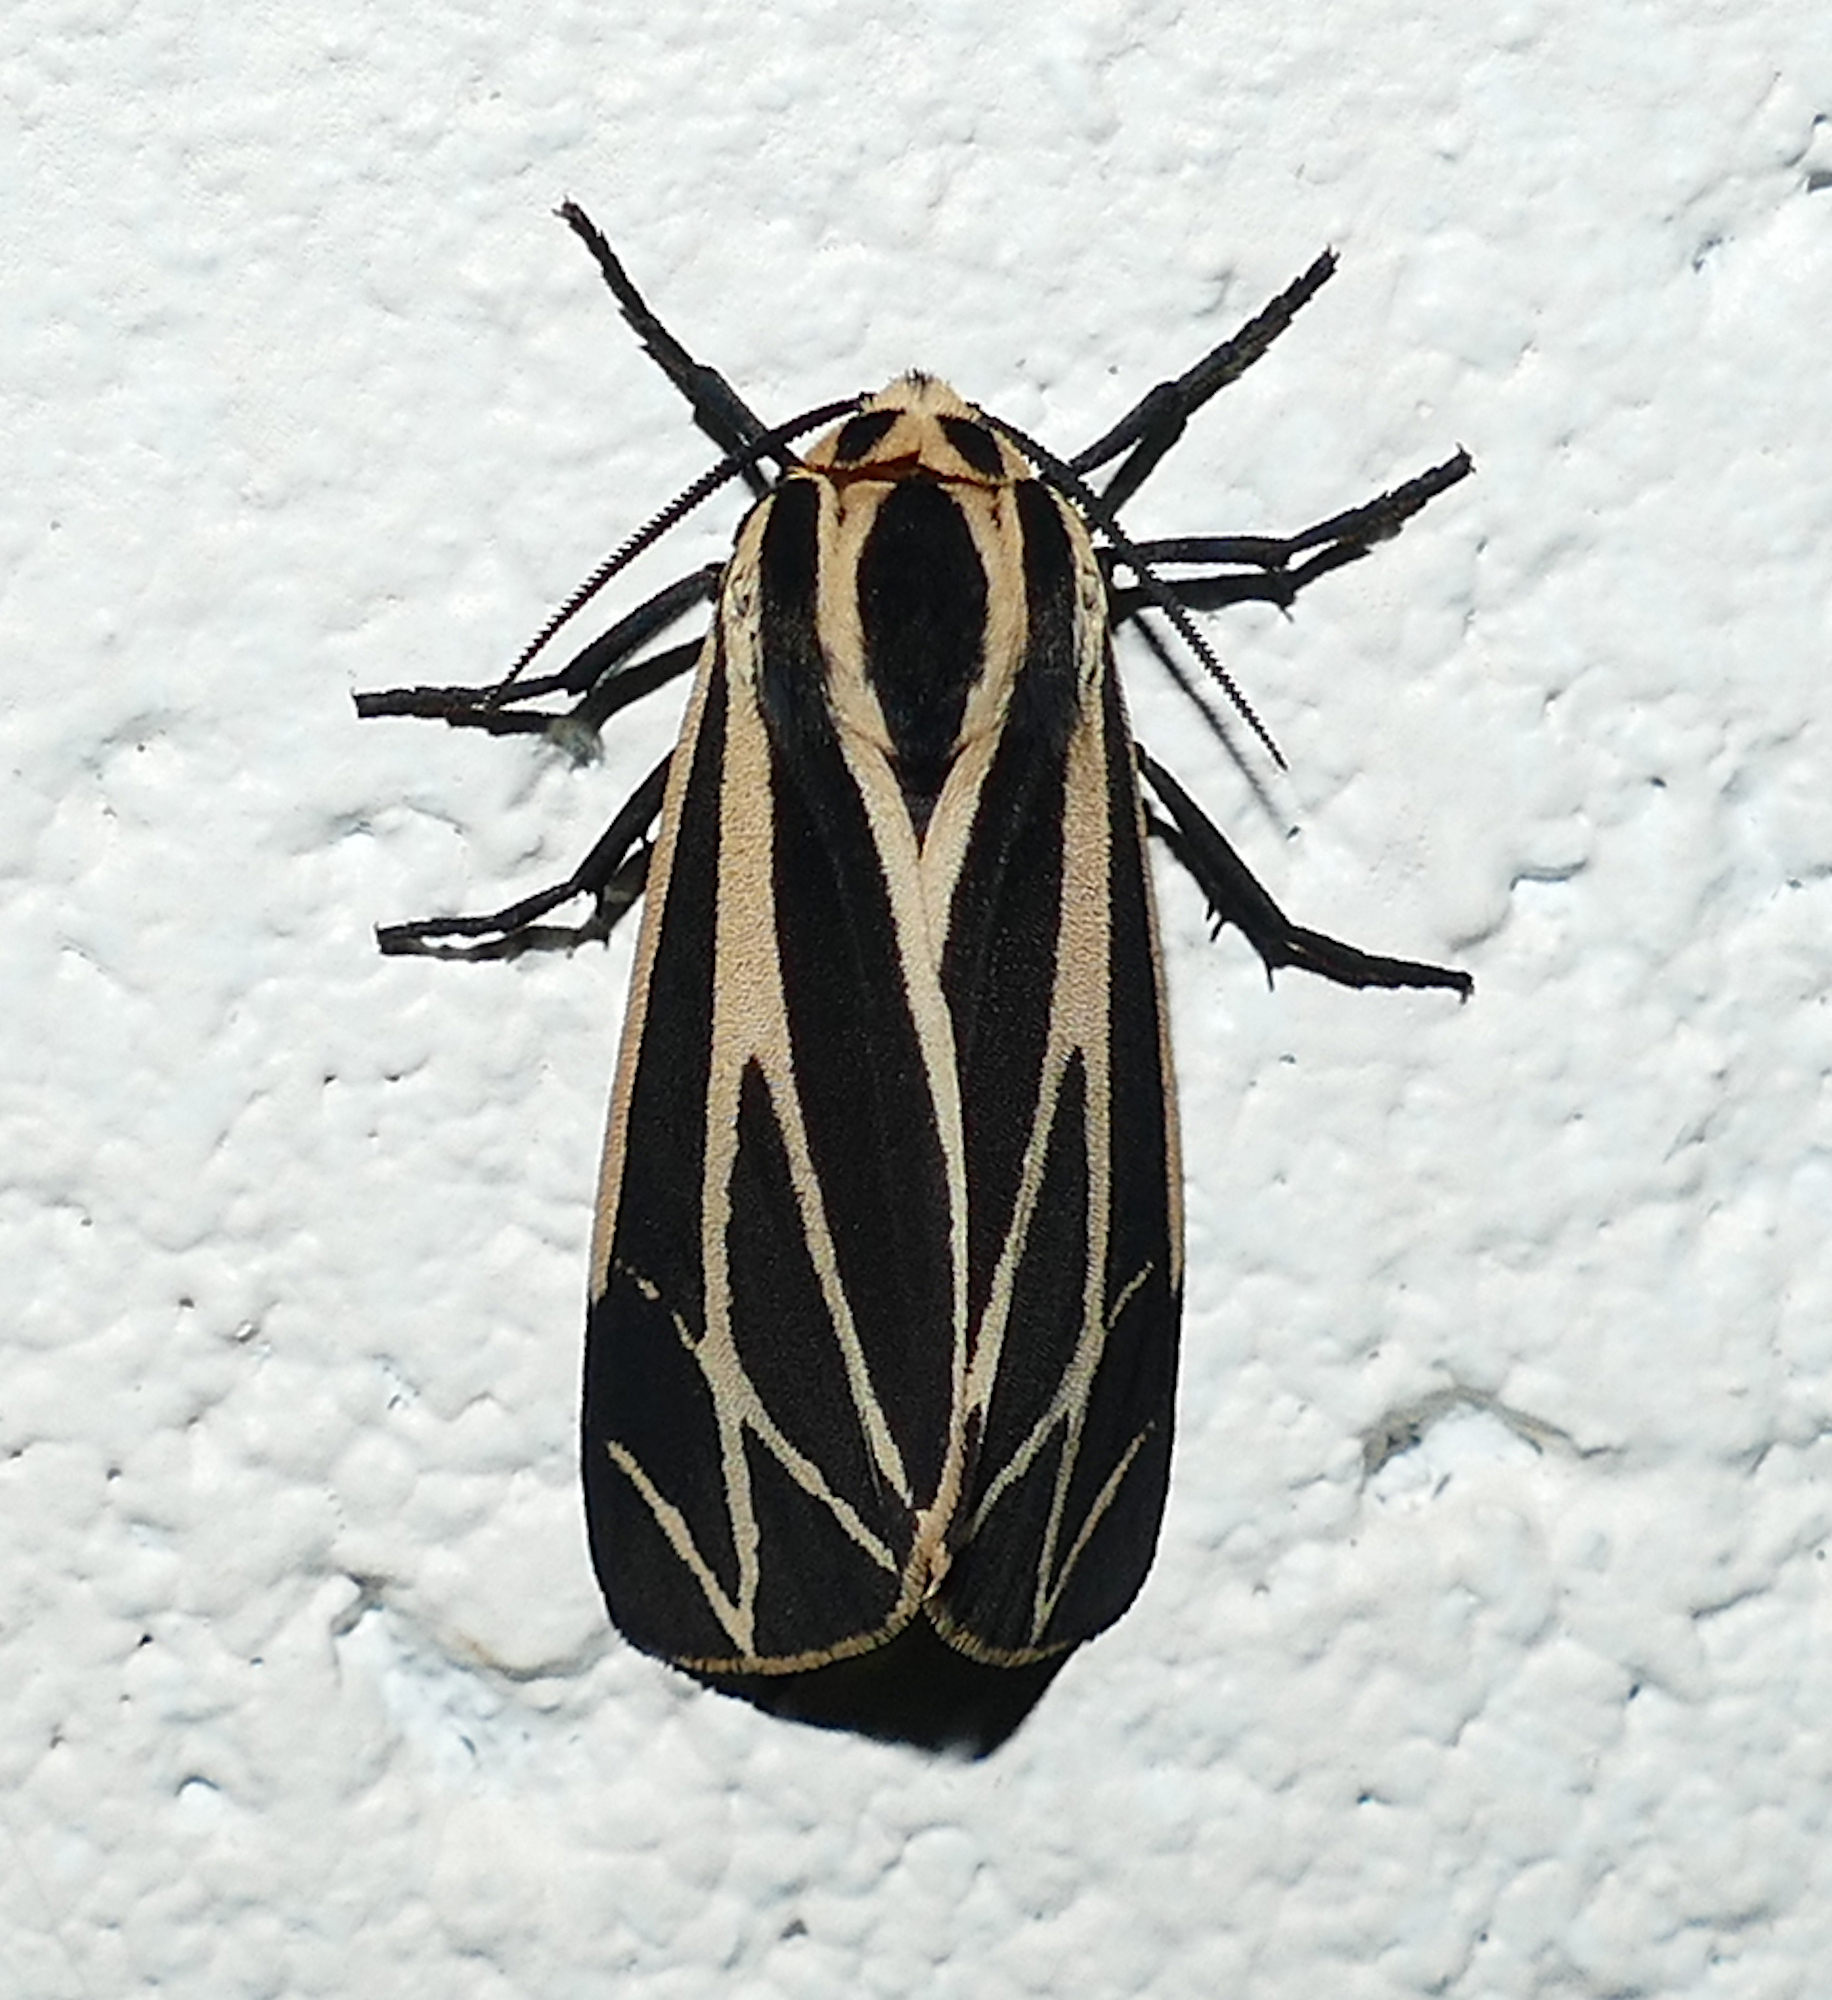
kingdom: Animalia
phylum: Arthropoda
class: Insecta
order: Lepidoptera
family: Erebidae
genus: Apantesis
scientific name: Apantesis phalerata
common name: Harnessed tiger moth
